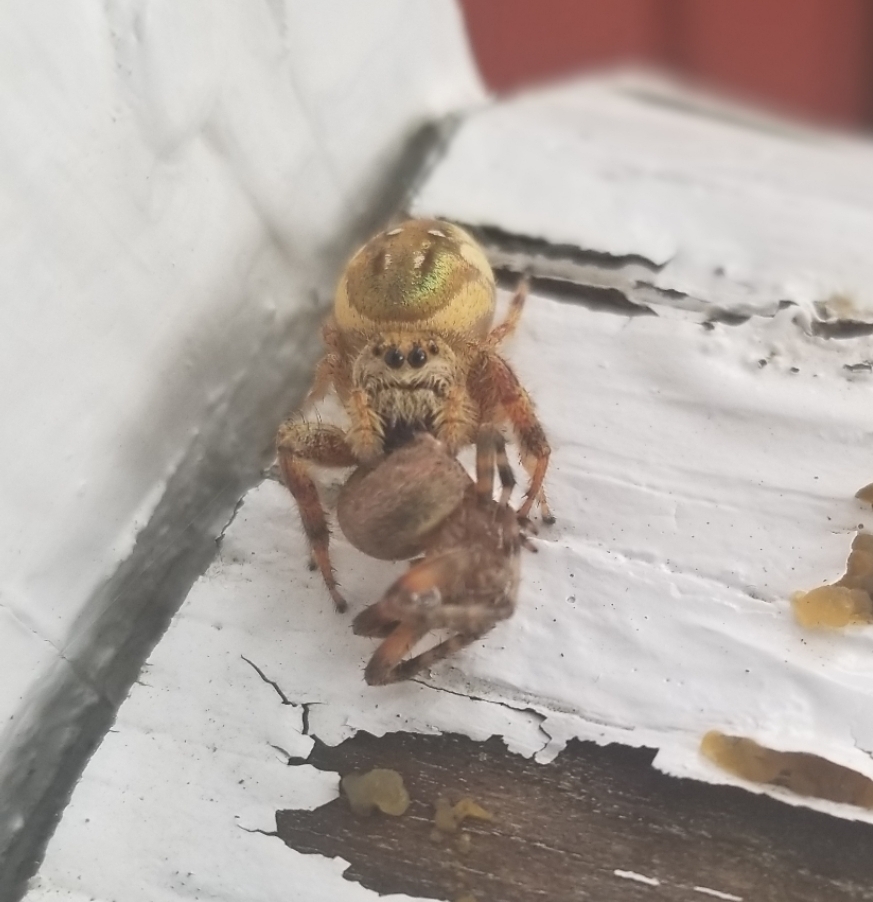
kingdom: Animalia
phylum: Arthropoda
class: Arachnida
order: Araneae
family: Salticidae
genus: Paraphidippus
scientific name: Paraphidippus aurantius
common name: Jumping spiders
